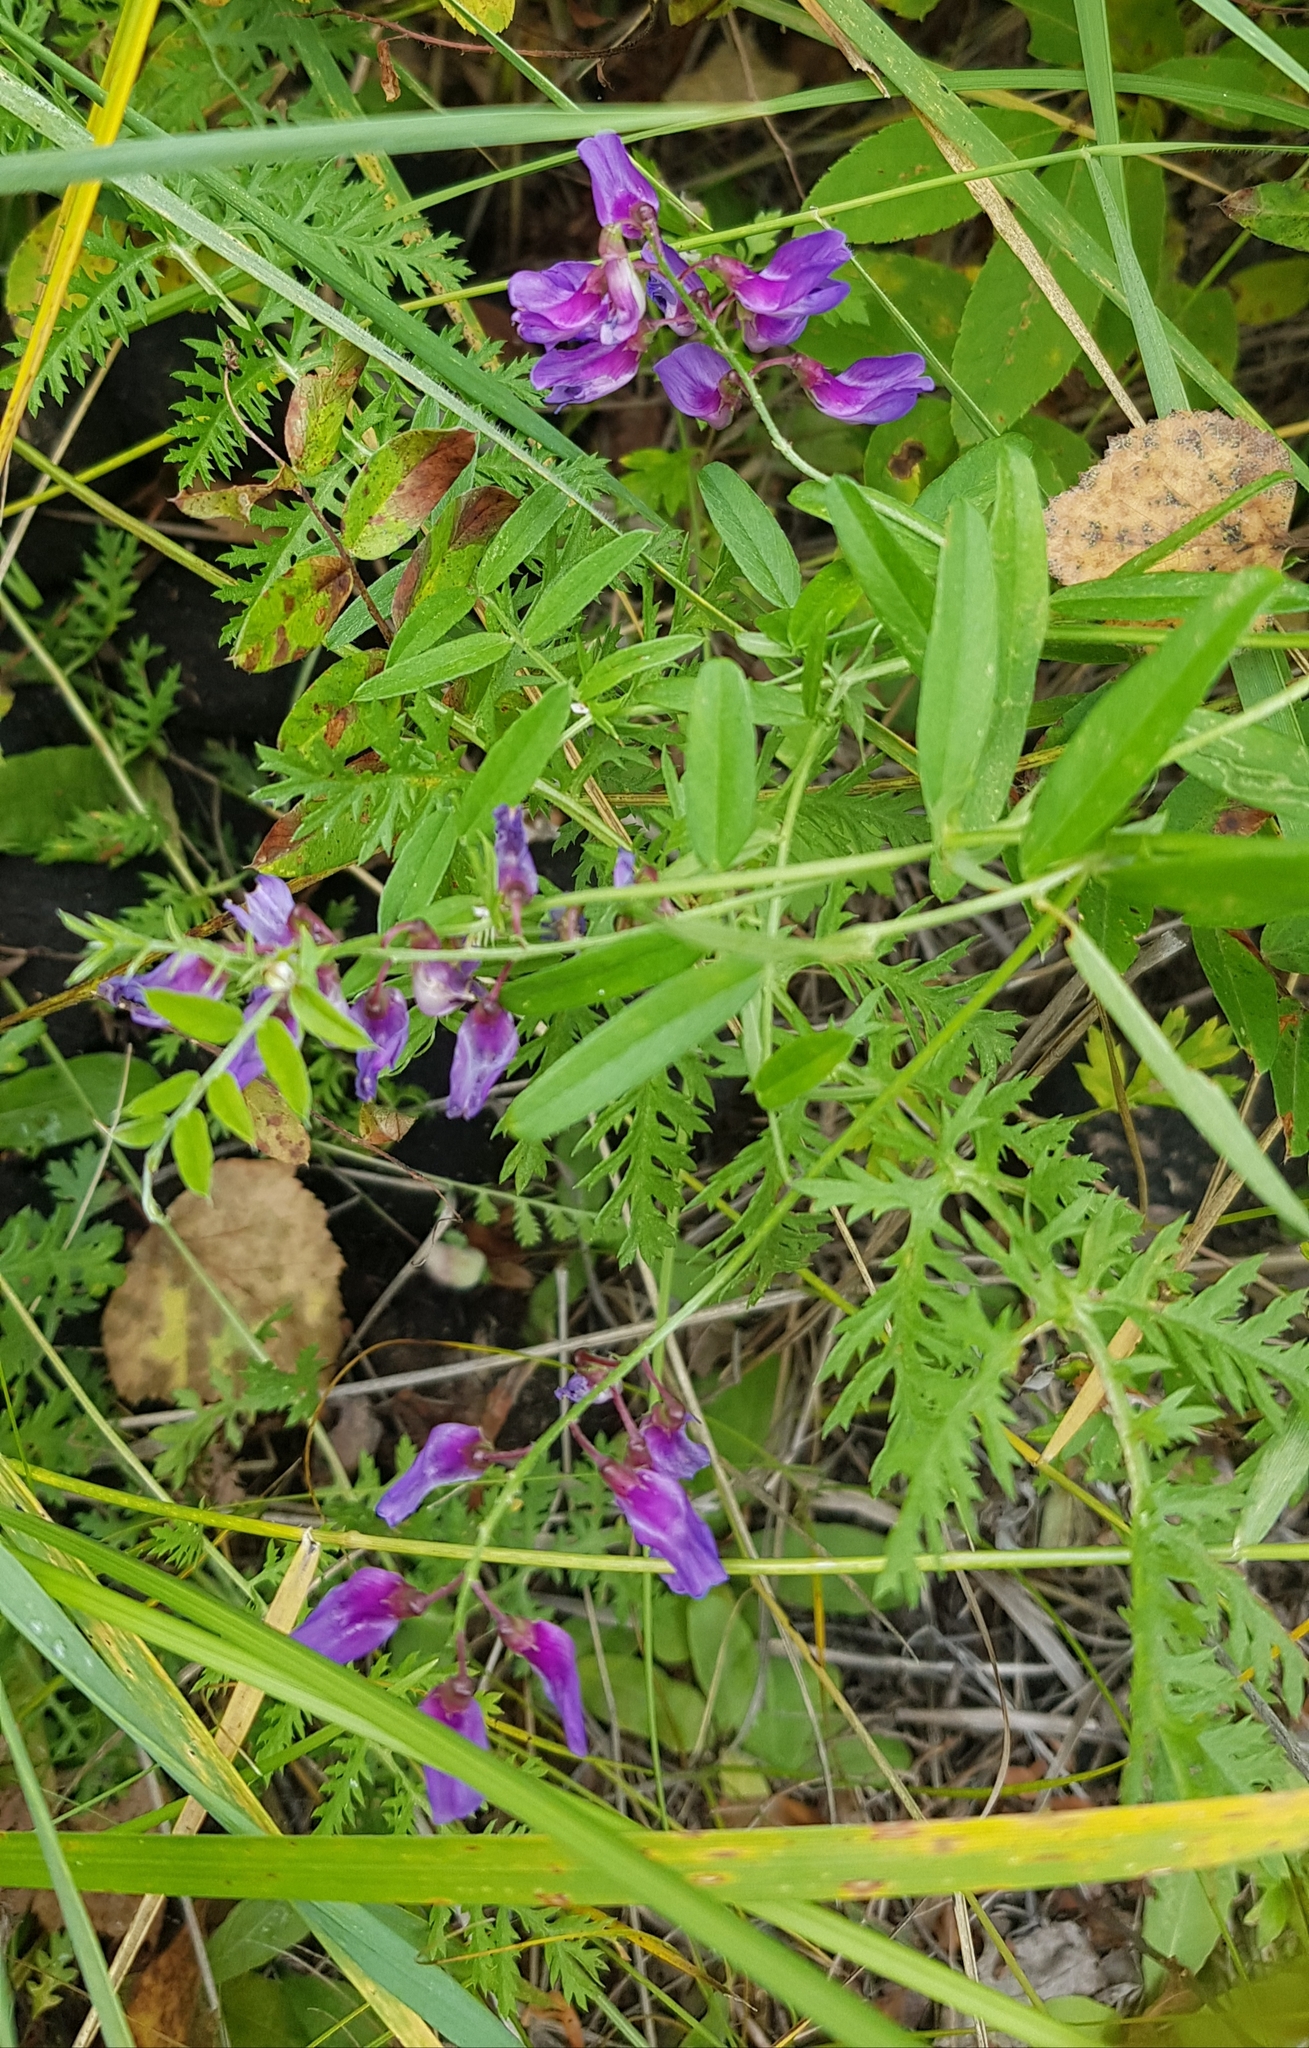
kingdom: Plantae
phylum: Tracheophyta
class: Magnoliopsida
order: Fabales
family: Fabaceae
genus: Vicia
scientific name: Vicia amoena
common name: Cheder ebs
